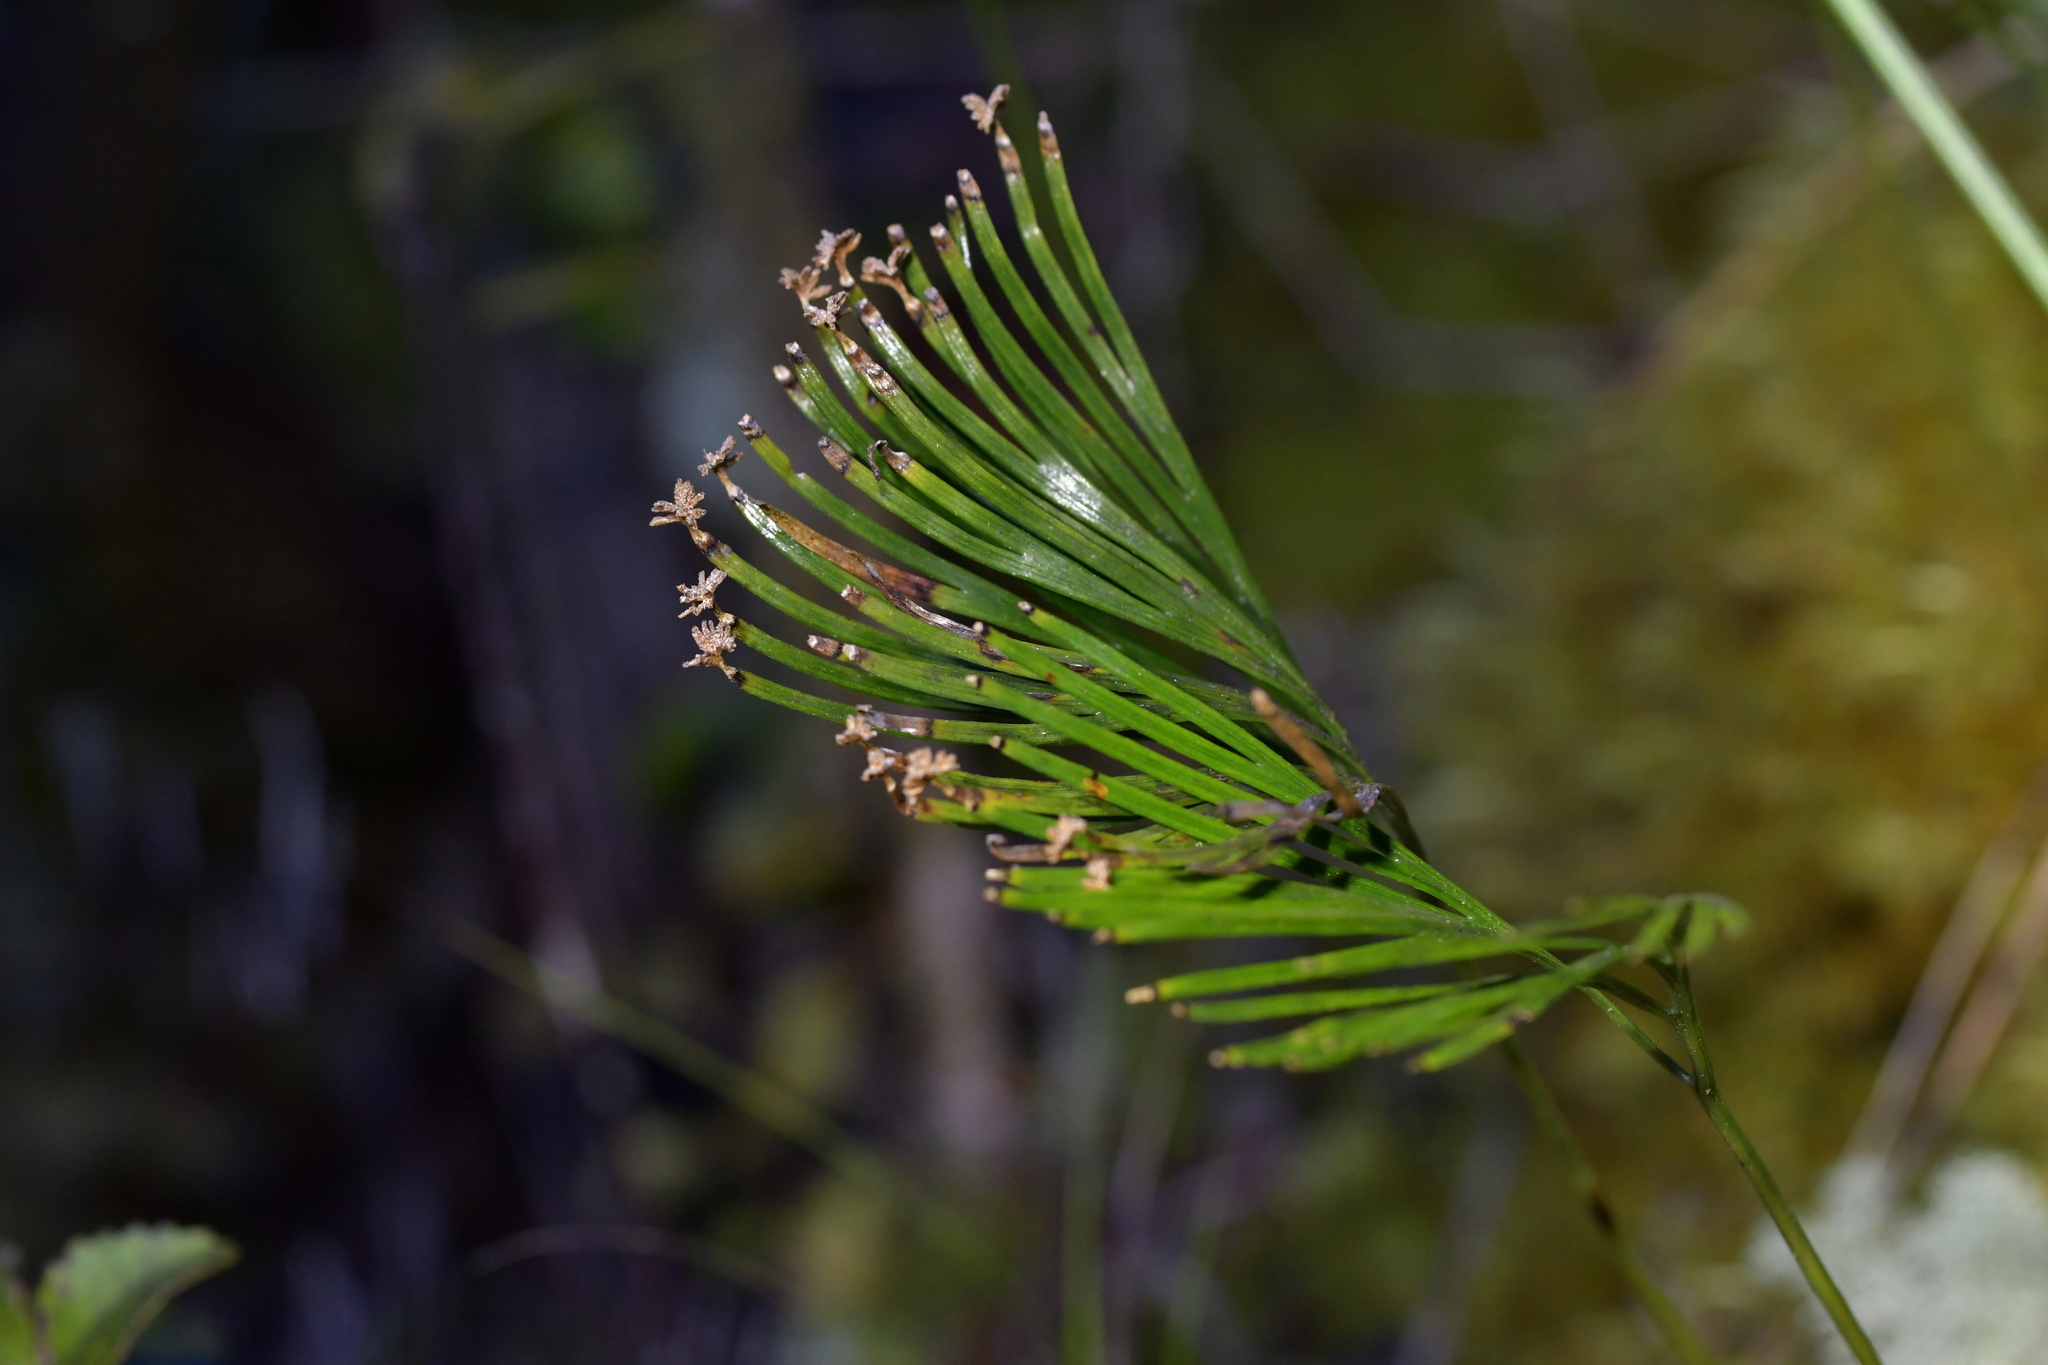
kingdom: Plantae
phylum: Tracheophyta
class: Polypodiopsida
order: Schizaeales
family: Schizaeaceae
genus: Schizaea
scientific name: Schizaea dichotoma
